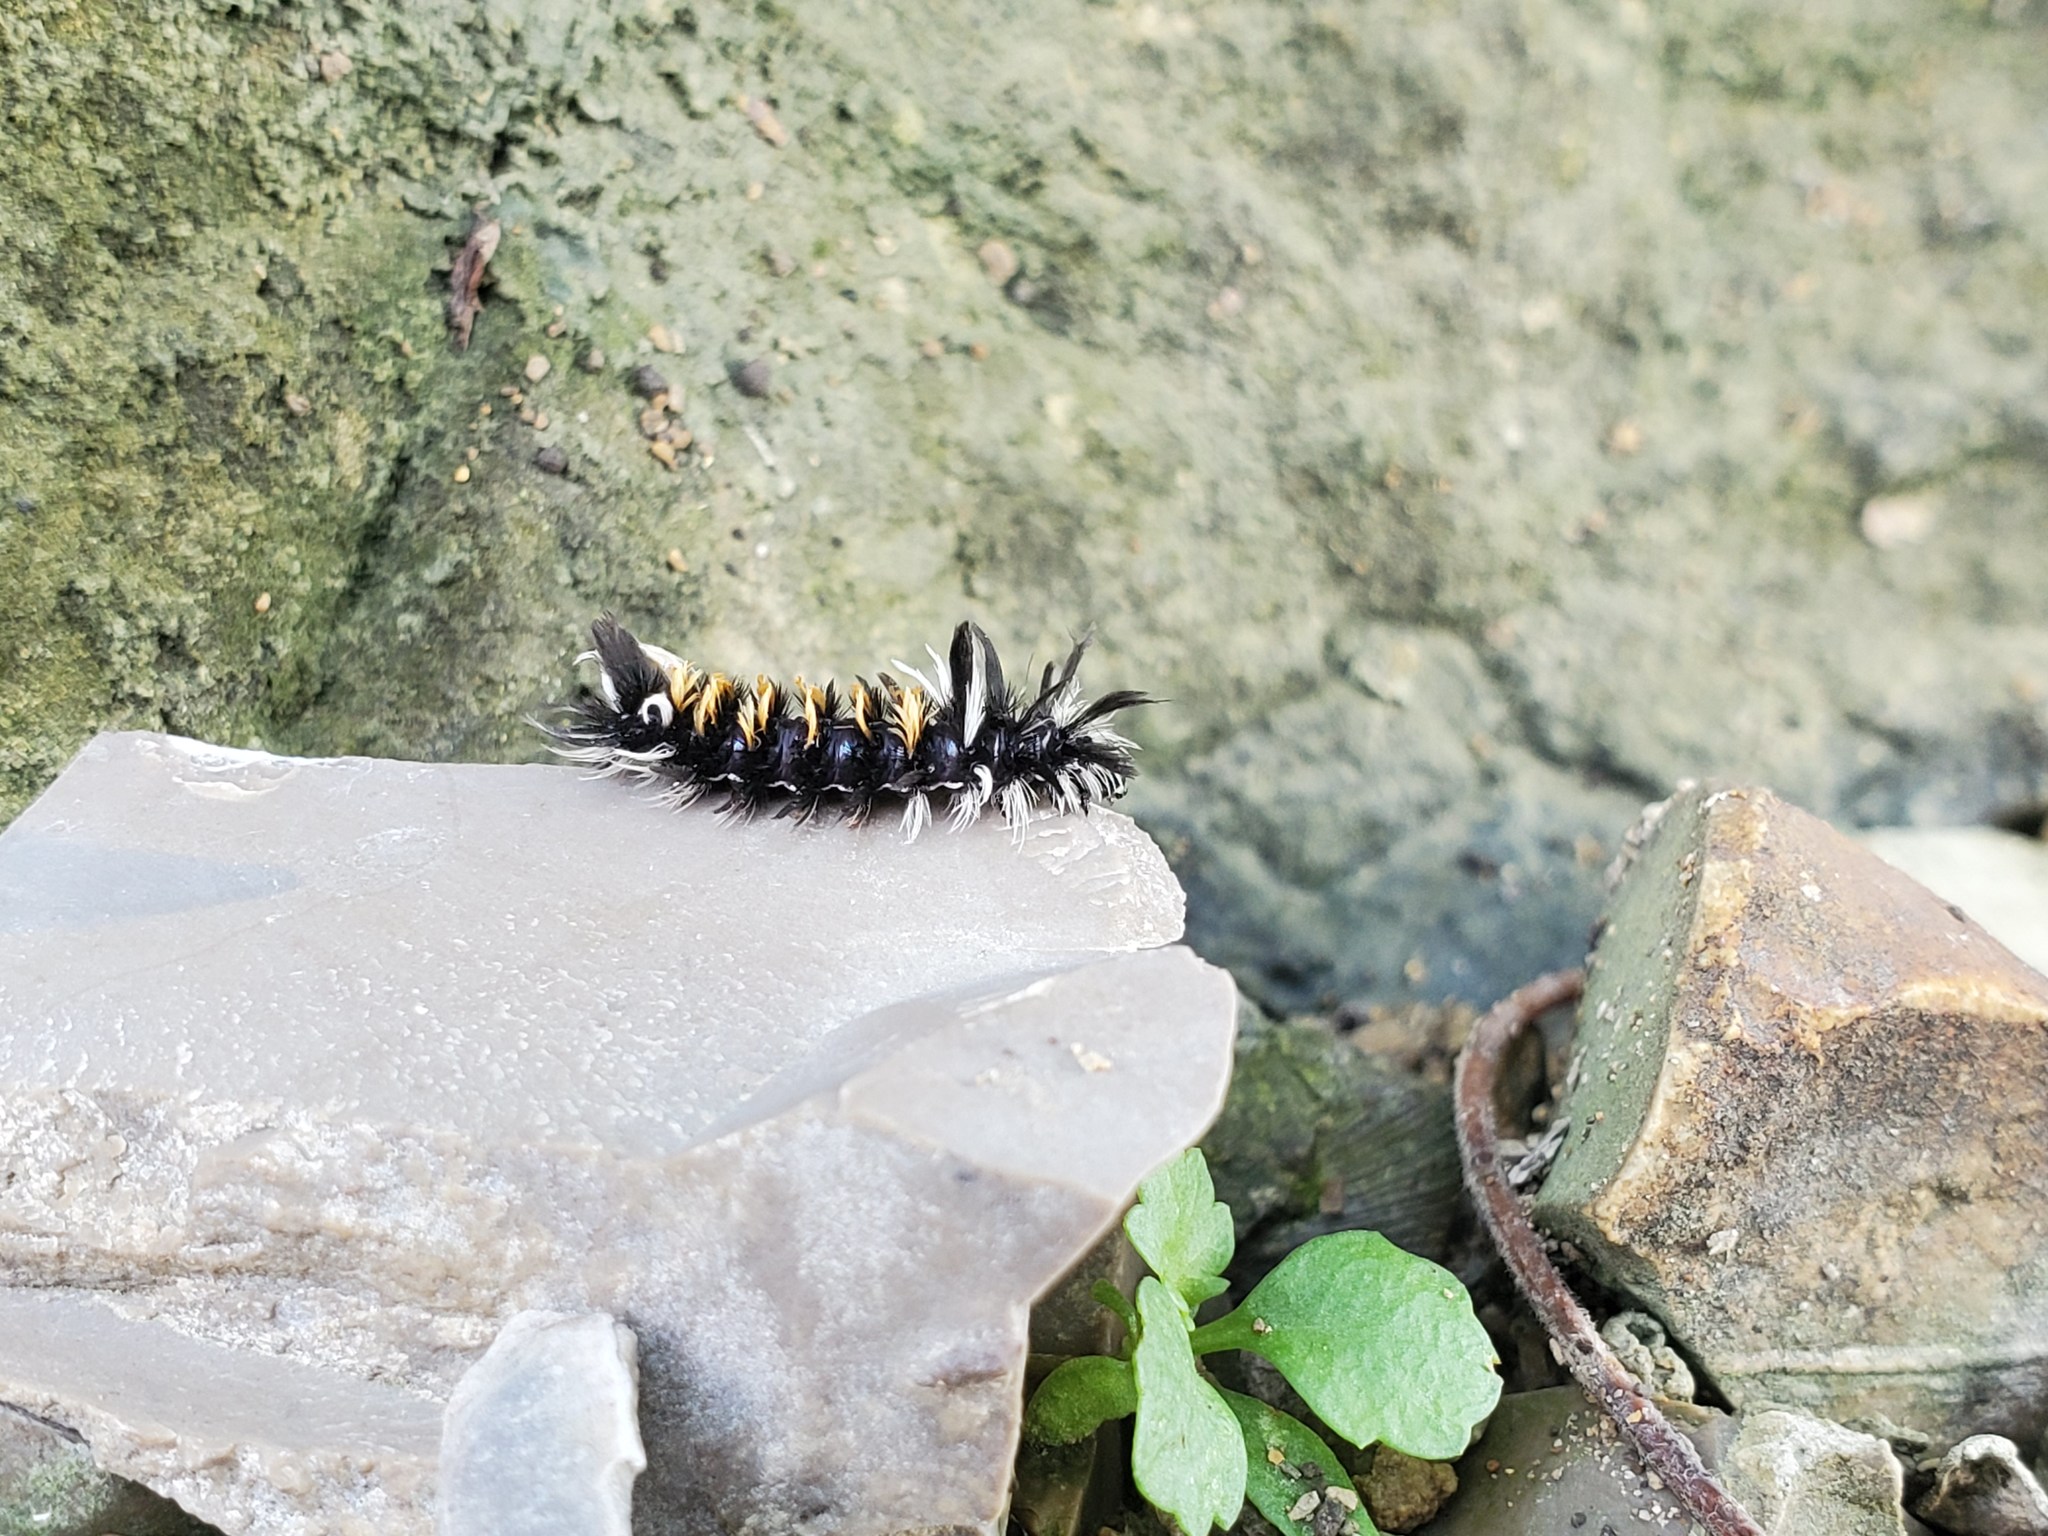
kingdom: Animalia
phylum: Arthropoda
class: Insecta
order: Lepidoptera
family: Erebidae
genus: Euchaetes
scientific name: Euchaetes egle
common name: Milkweed tussock moth
